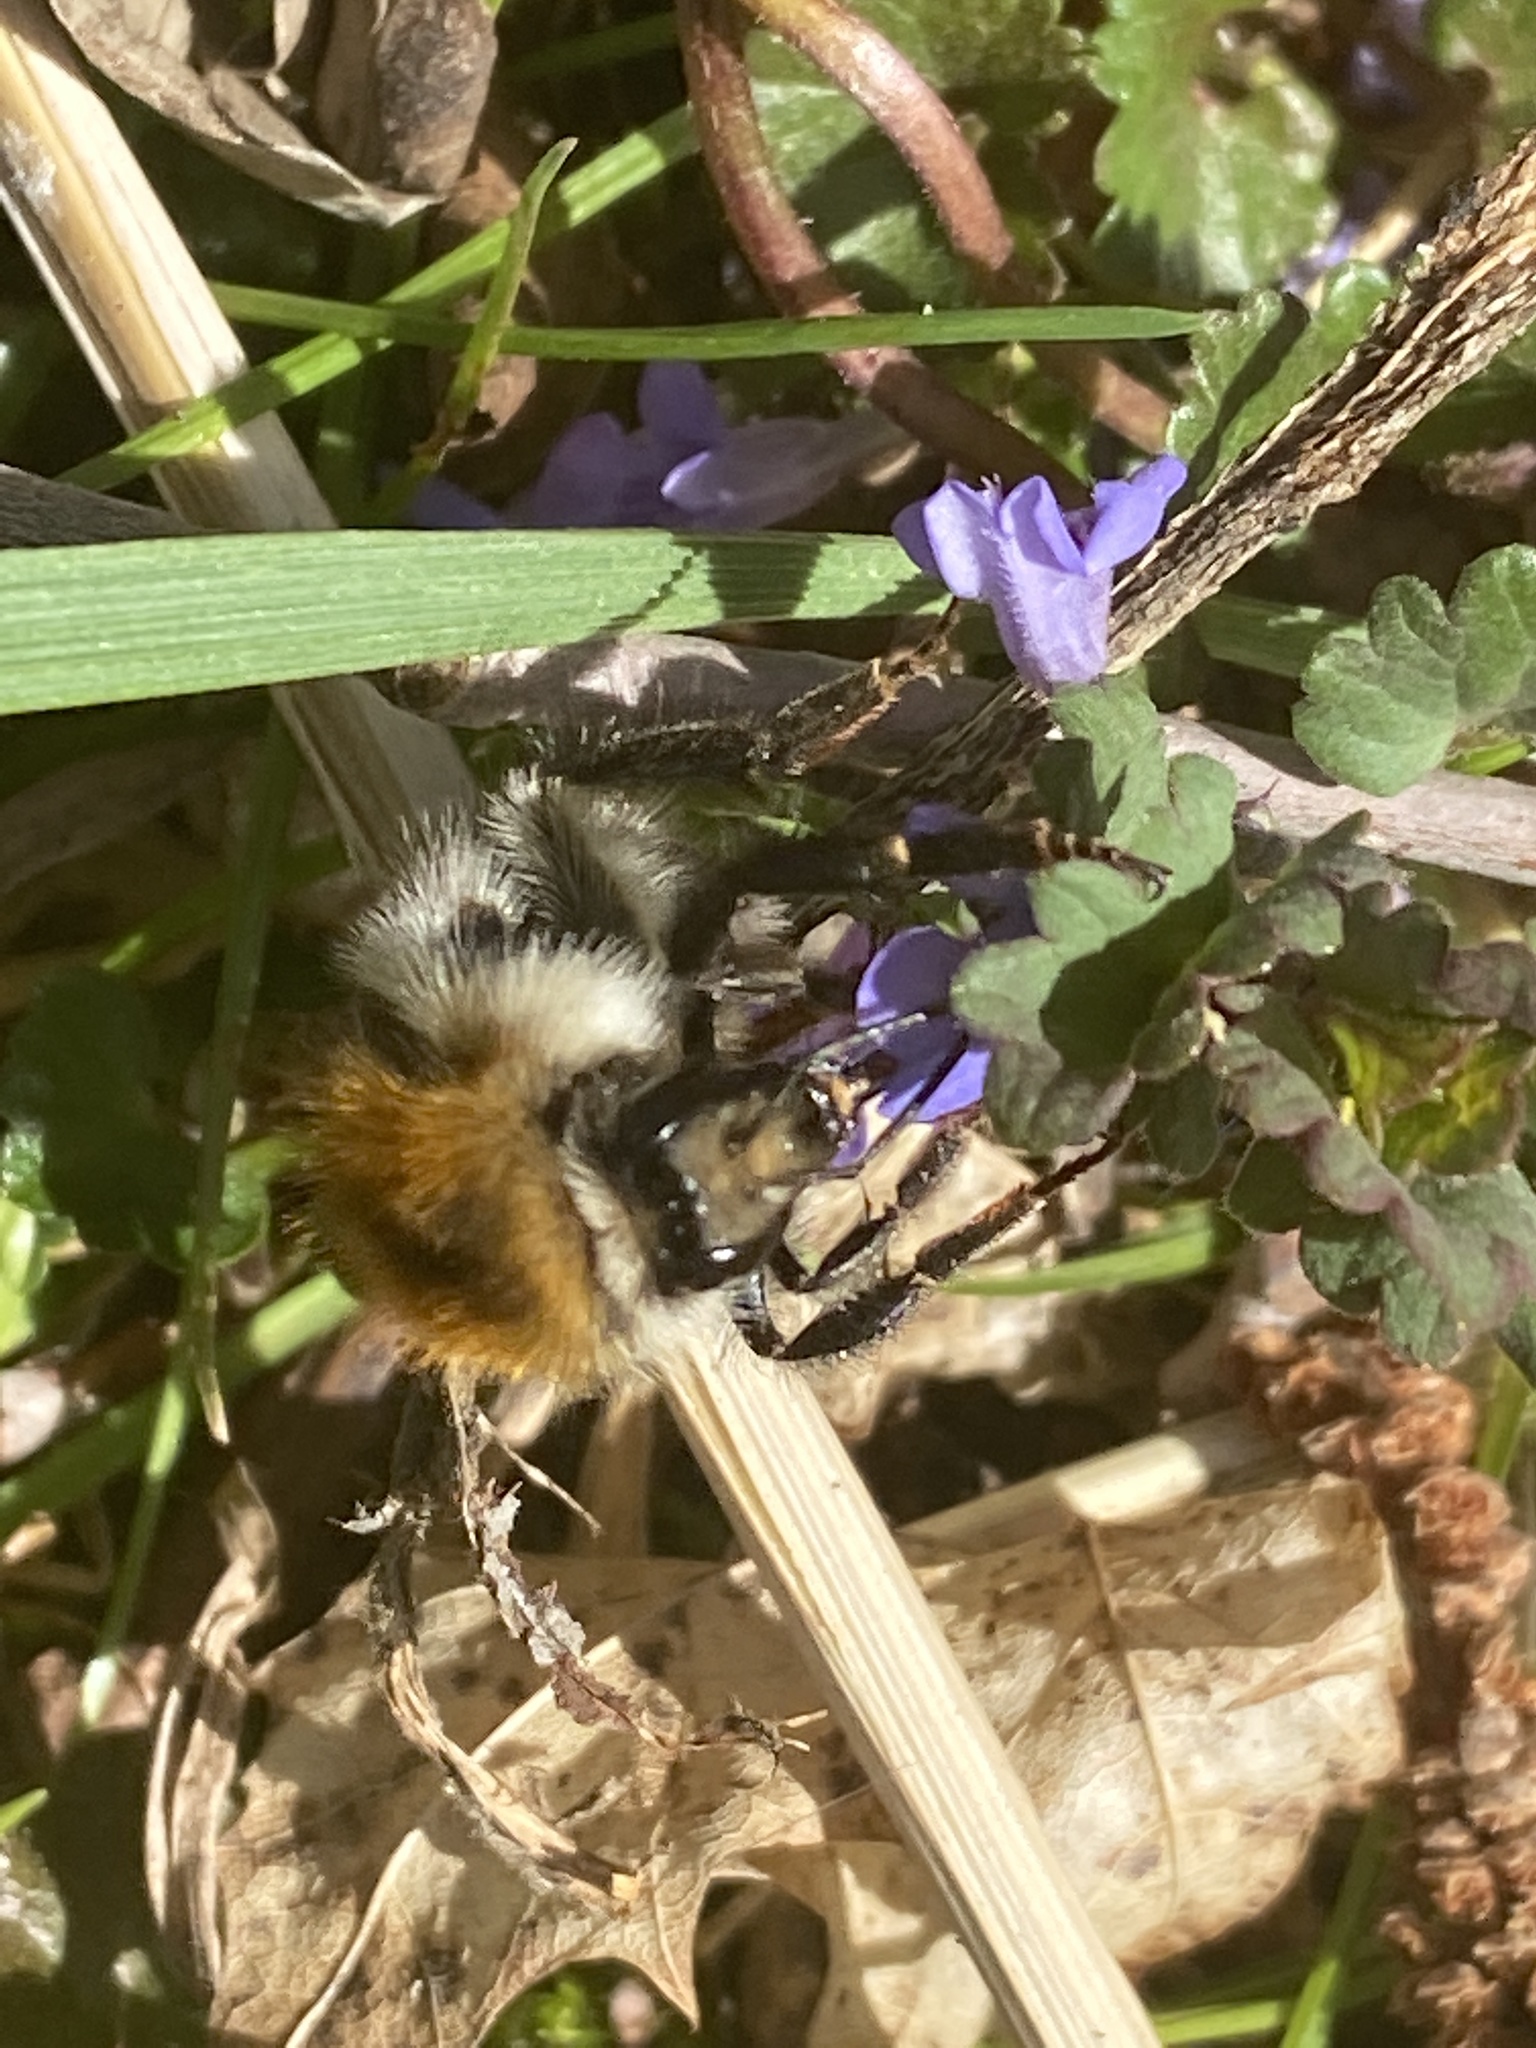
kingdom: Animalia
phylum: Arthropoda
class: Insecta
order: Hymenoptera
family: Apidae
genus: Bombus
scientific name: Bombus pascuorum
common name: Common carder bee
